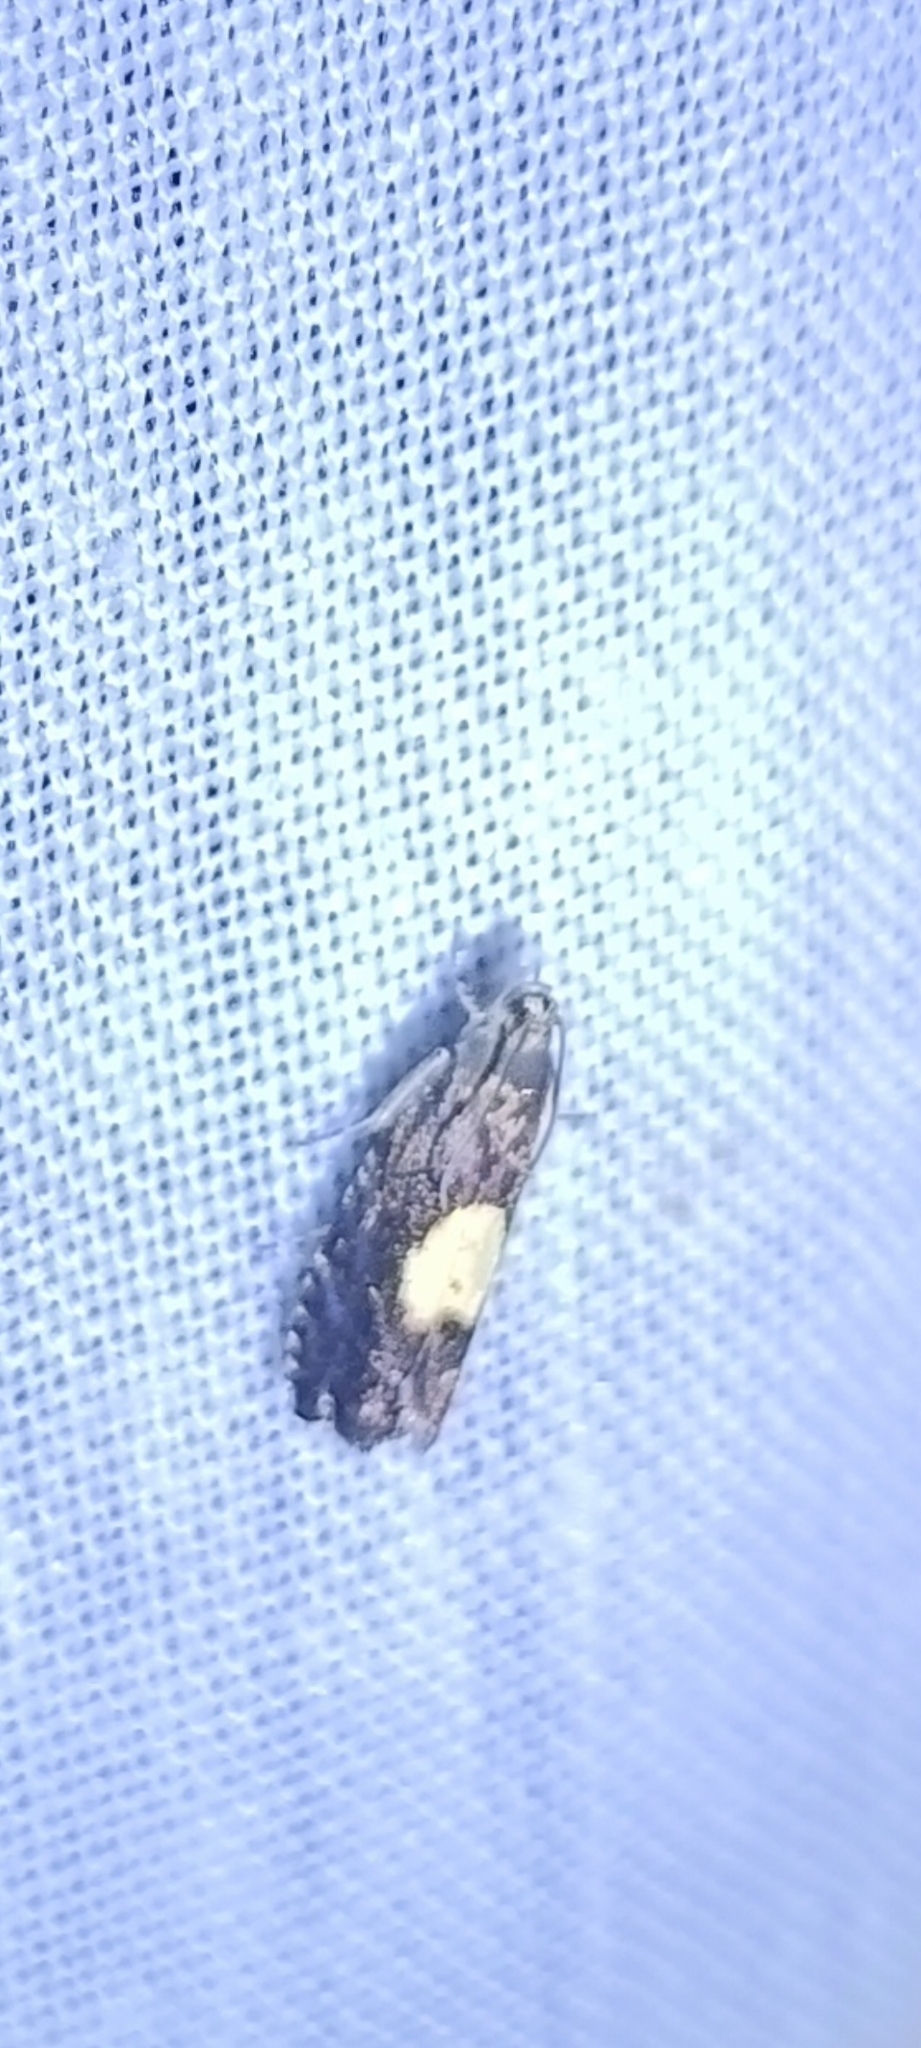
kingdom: Animalia
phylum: Arthropoda
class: Insecta
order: Lepidoptera
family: Tortricidae
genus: Pammene
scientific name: Pammene regiana
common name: Regal piercer
